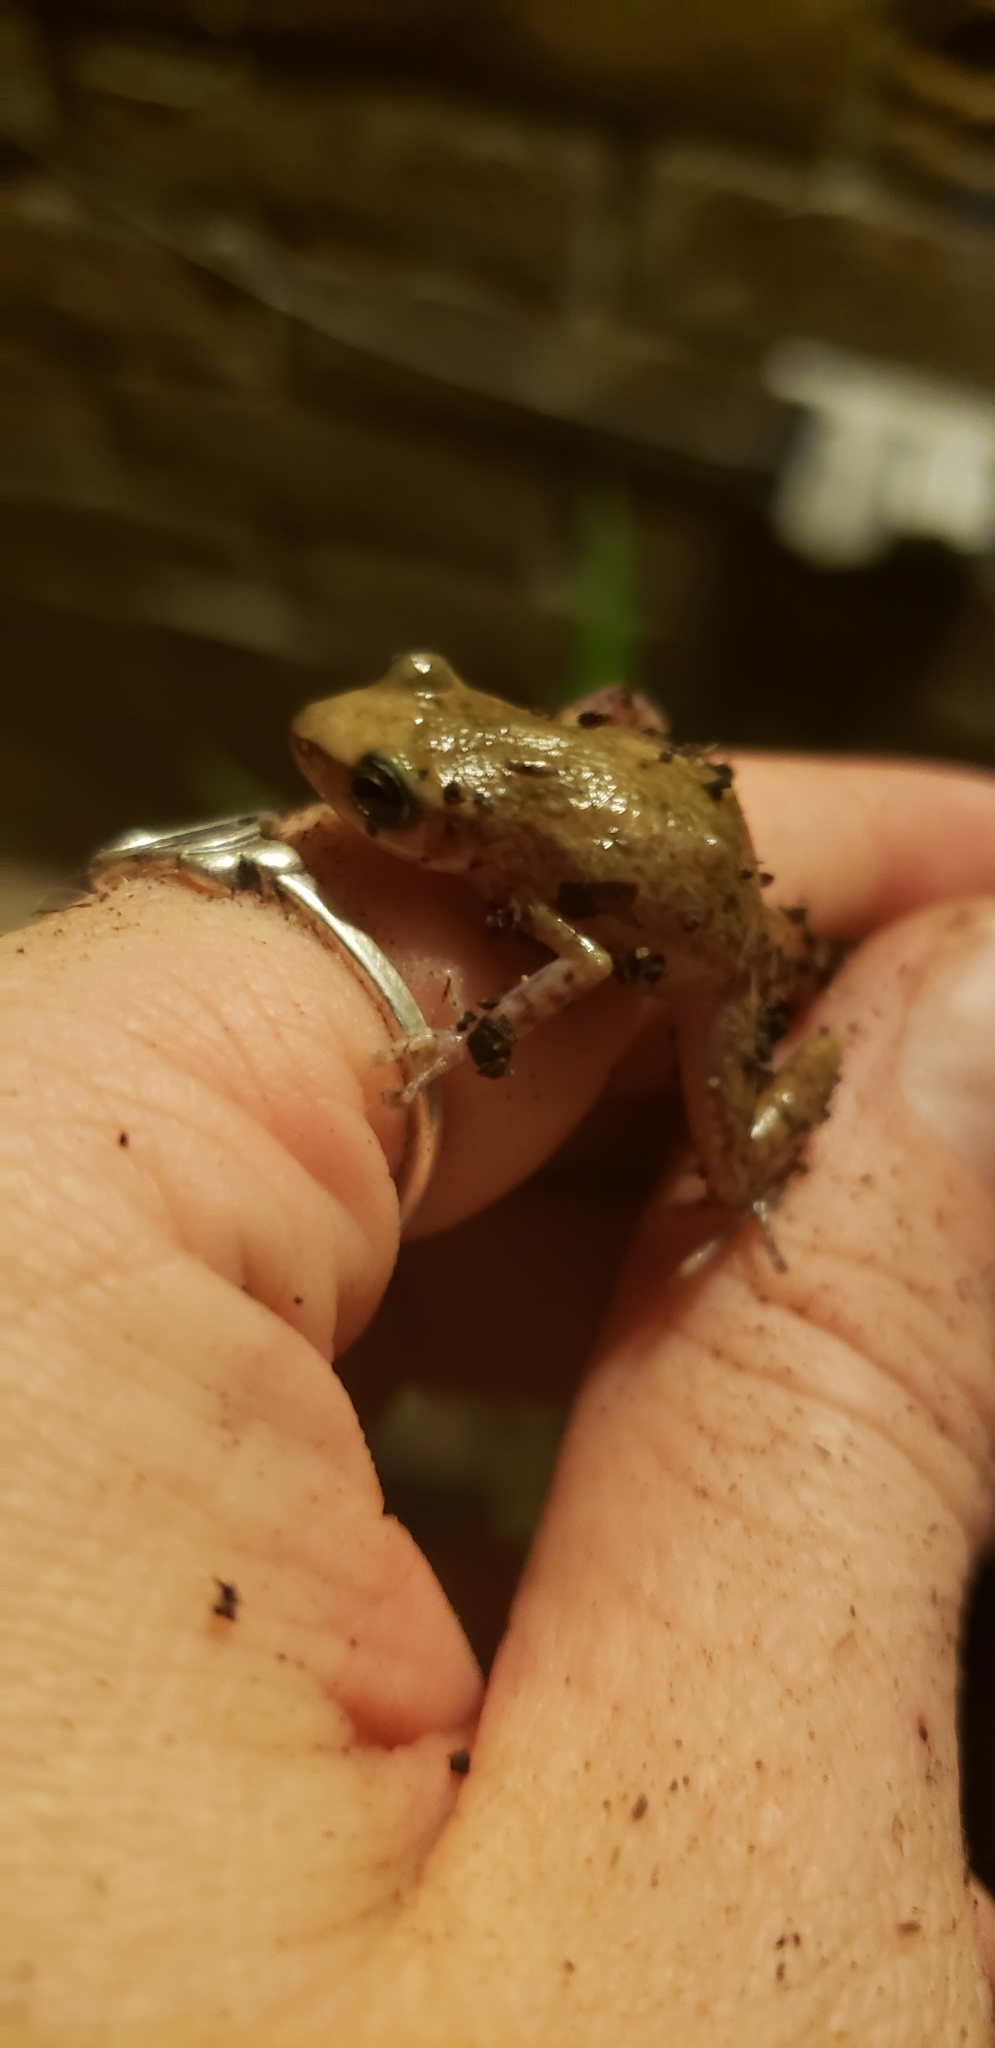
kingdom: Animalia
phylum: Chordata
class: Amphibia
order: Anura
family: Eleutherodactylidae
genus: Eleutherodactylus
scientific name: Eleutherodactylus campi
